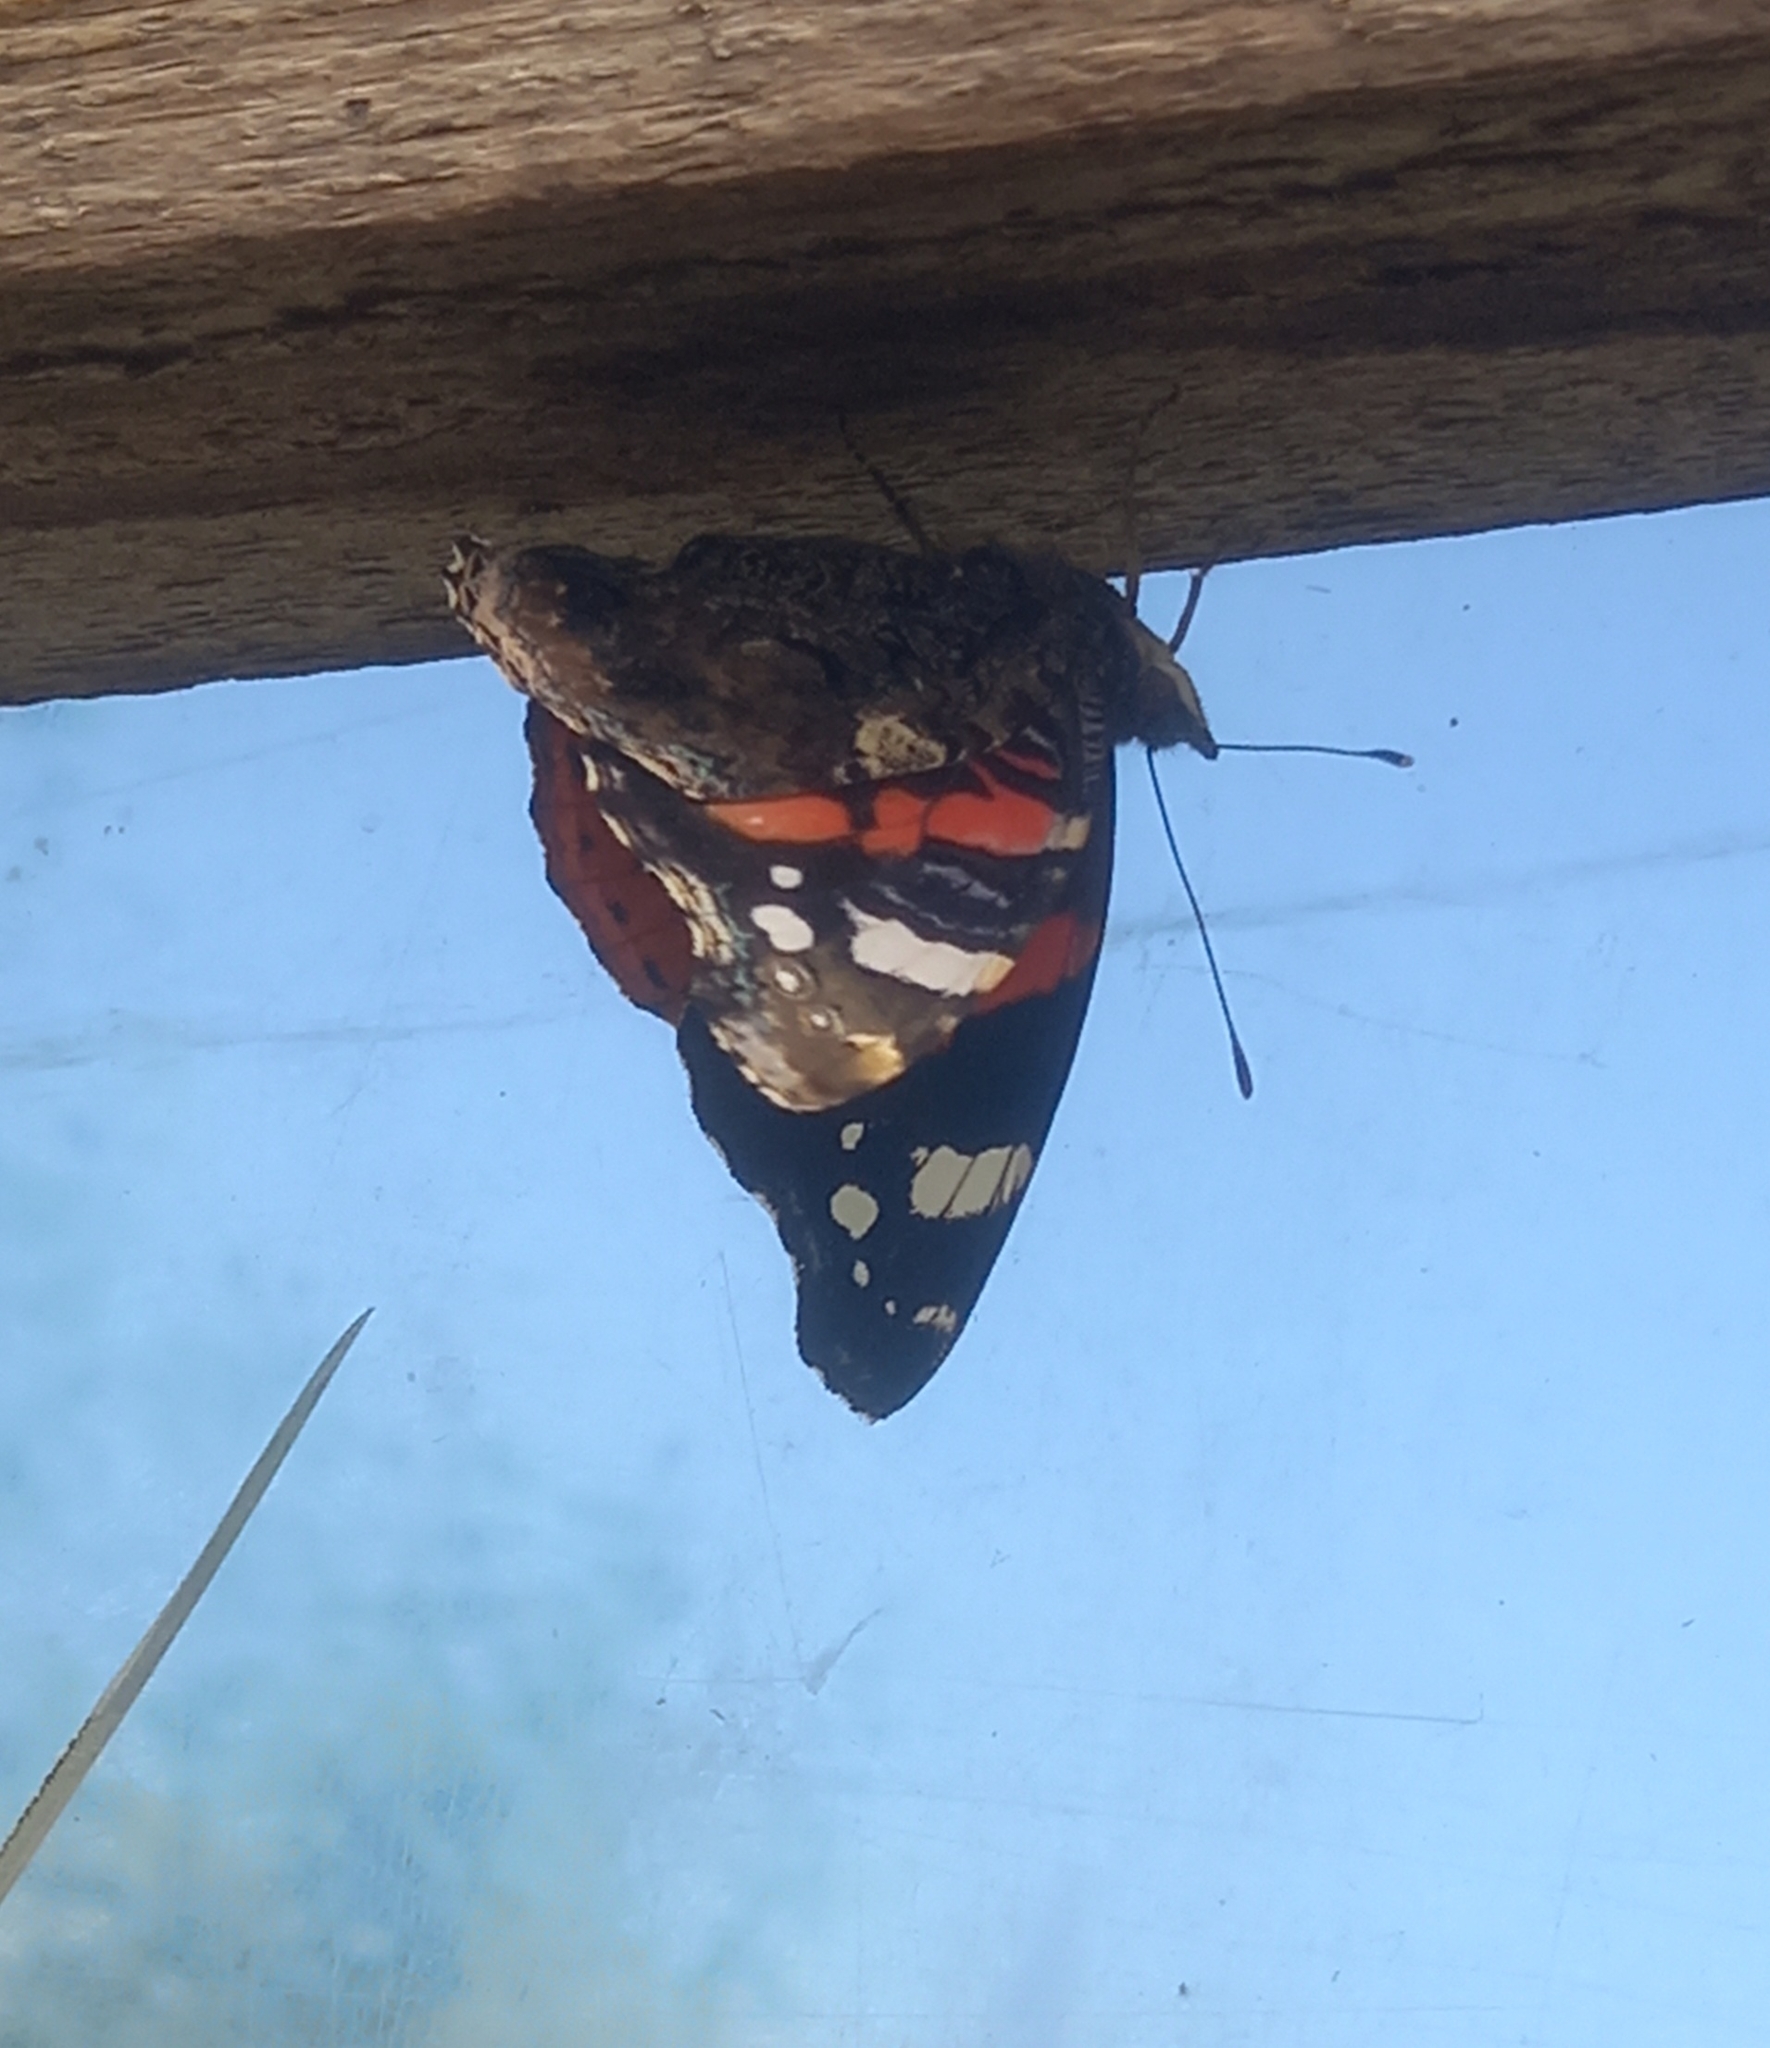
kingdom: Animalia
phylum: Arthropoda
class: Insecta
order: Lepidoptera
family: Nymphalidae
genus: Vanessa
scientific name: Vanessa atalanta
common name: Red admiral
